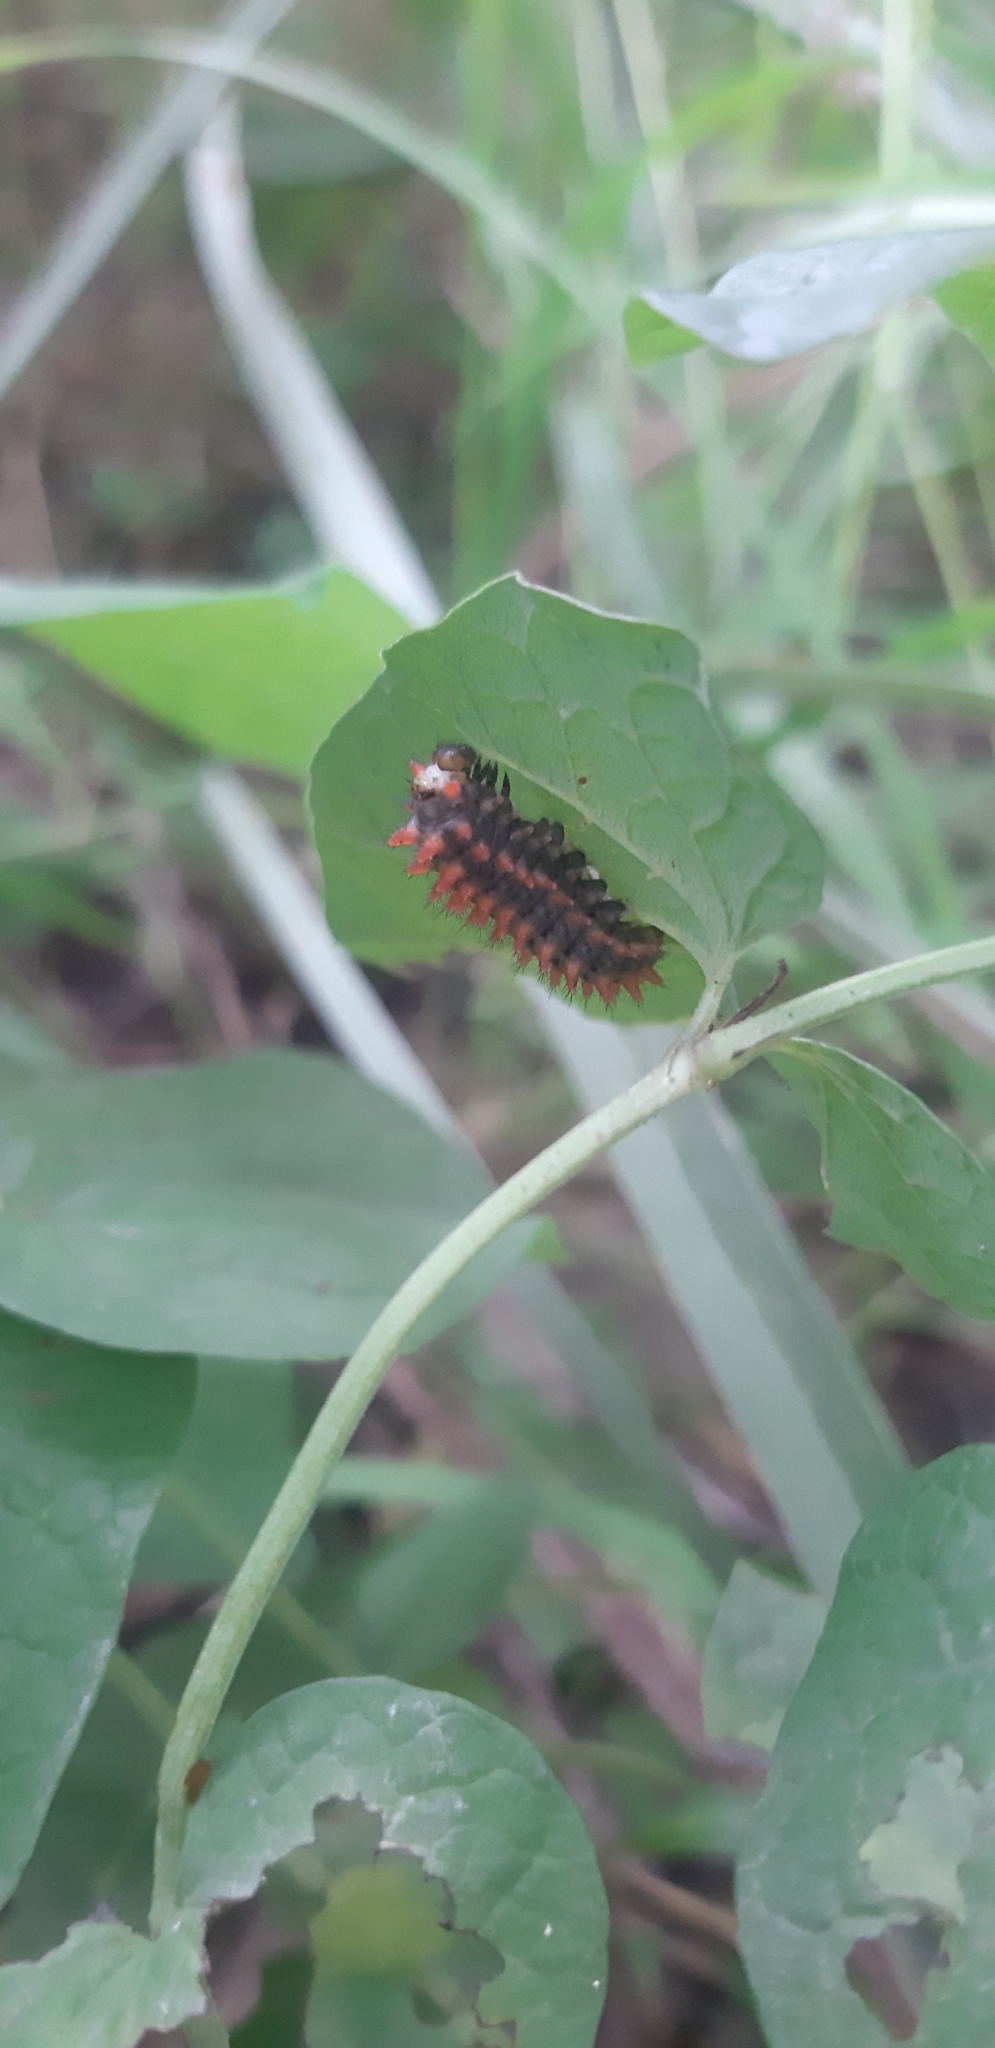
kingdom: Animalia
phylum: Arthropoda
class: Insecta
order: Lepidoptera
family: Papilionidae
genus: Zerynthia
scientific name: Zerynthia cassandra
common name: Italian festoon
